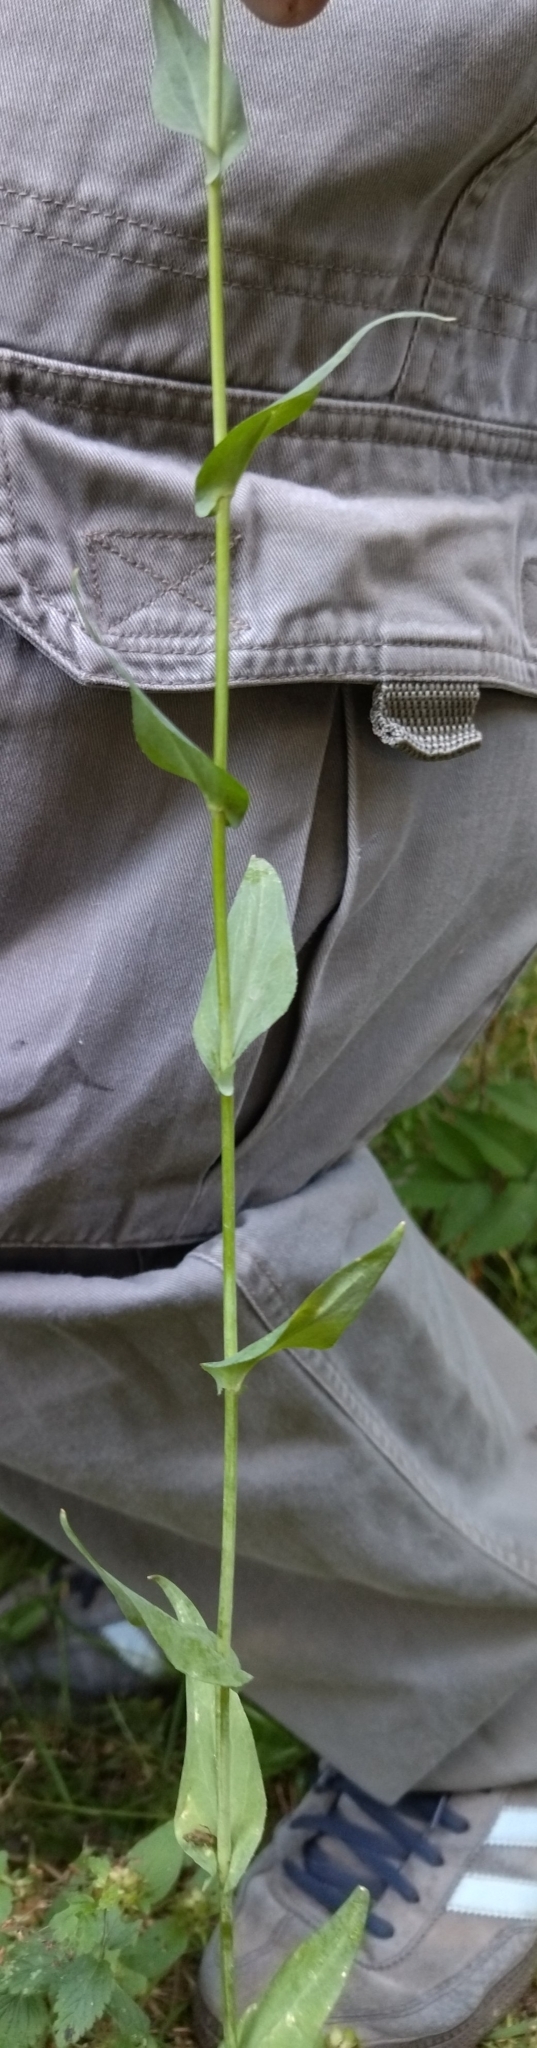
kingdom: Plantae
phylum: Tracheophyta
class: Magnoliopsida
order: Brassicales
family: Brassicaceae
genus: Turritis
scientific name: Turritis glabra
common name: Tower rockcress
